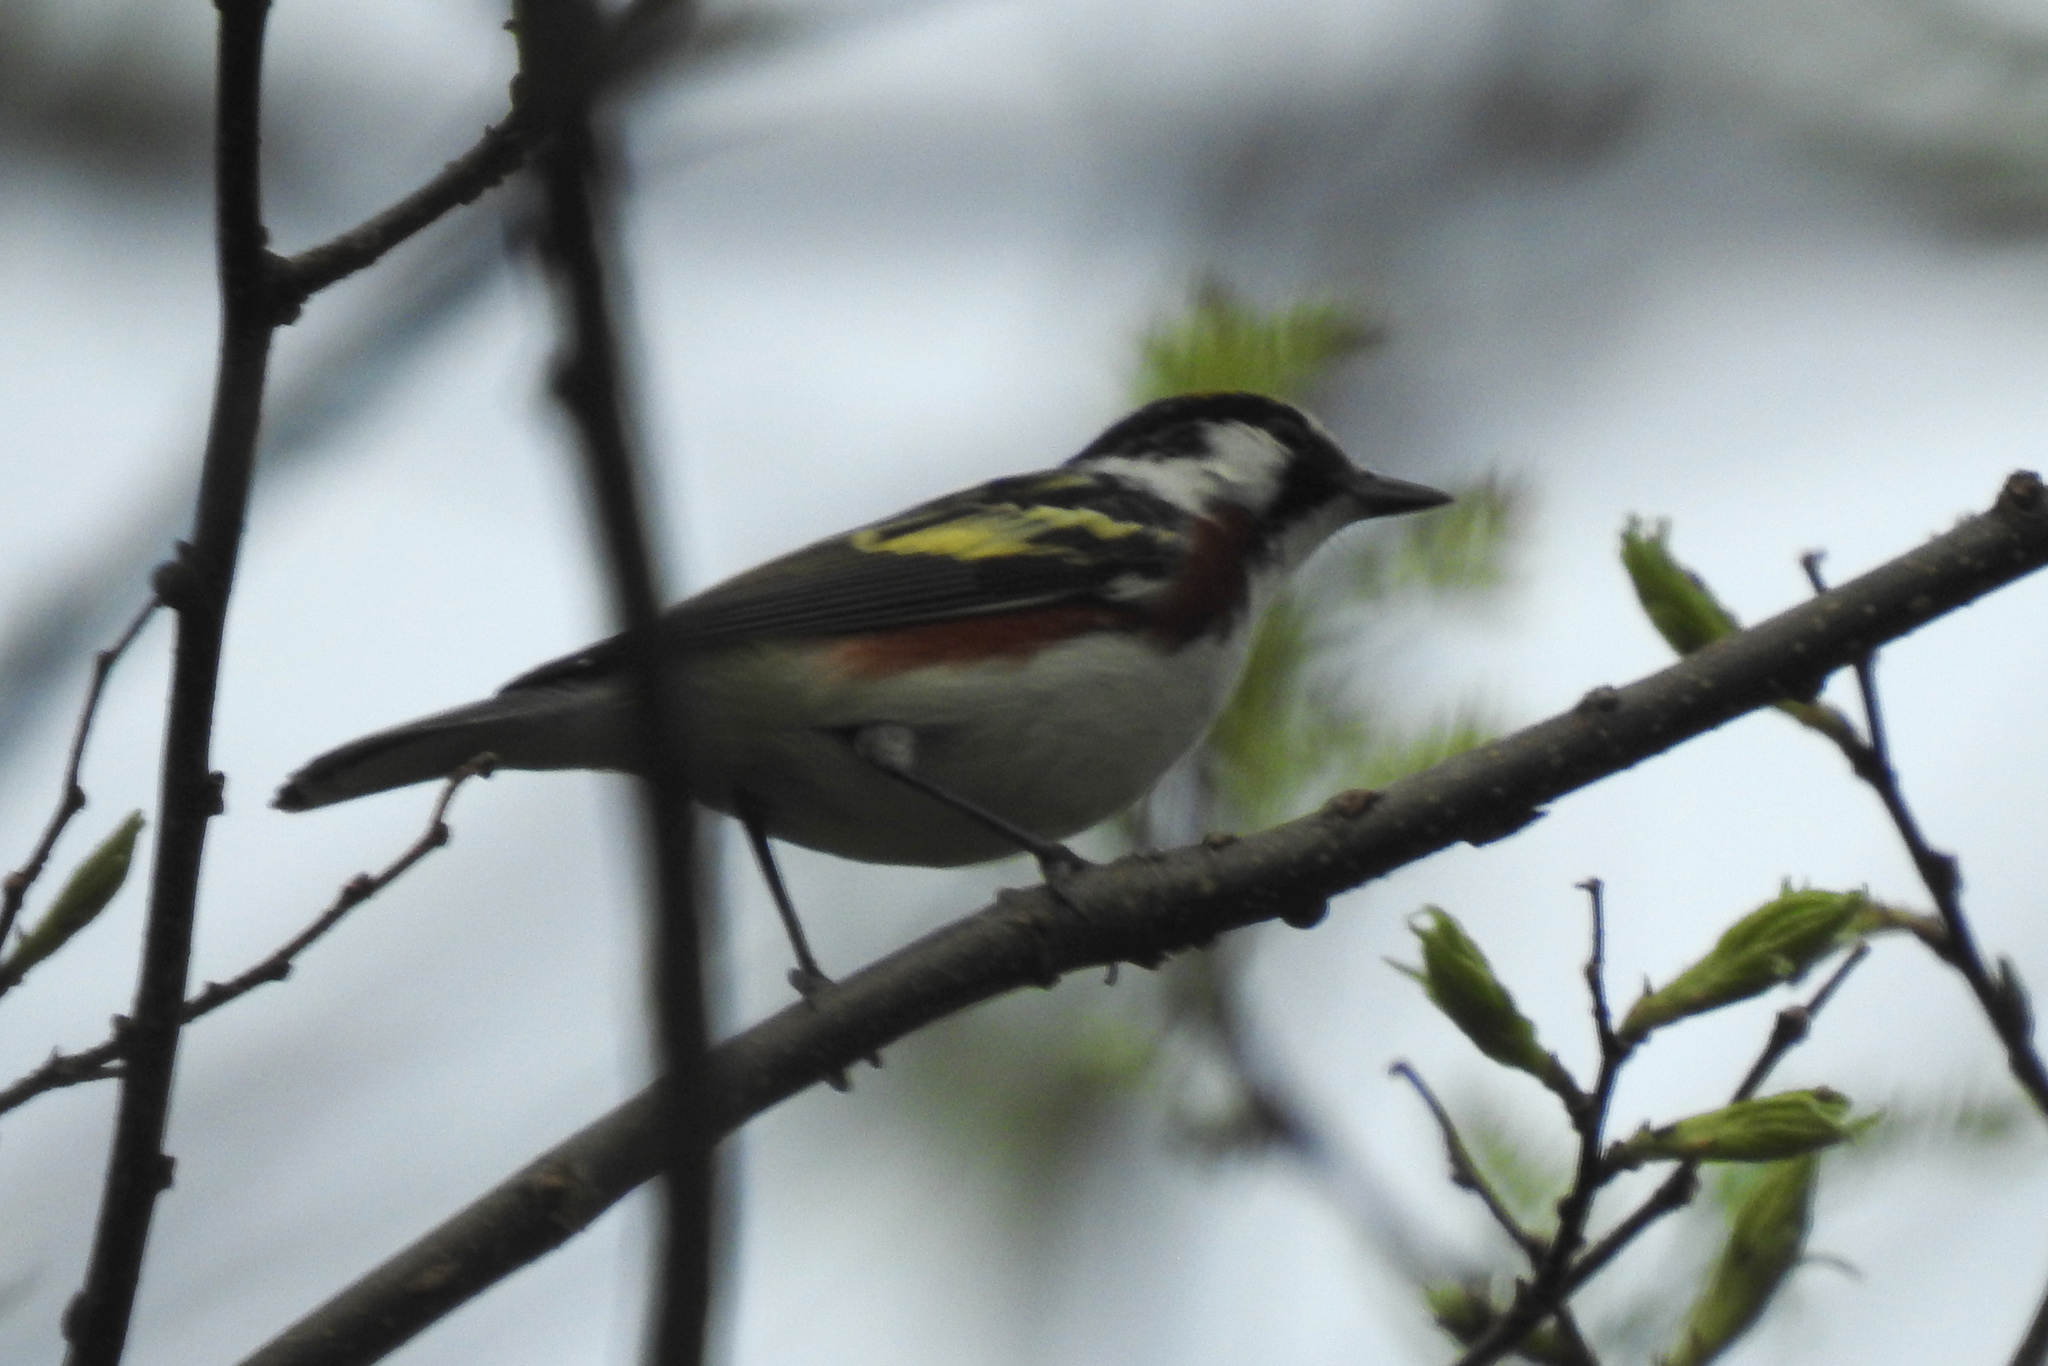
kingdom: Animalia
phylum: Chordata
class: Aves
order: Passeriformes
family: Parulidae
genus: Setophaga
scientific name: Setophaga pensylvanica
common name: Chestnut-sided warbler
